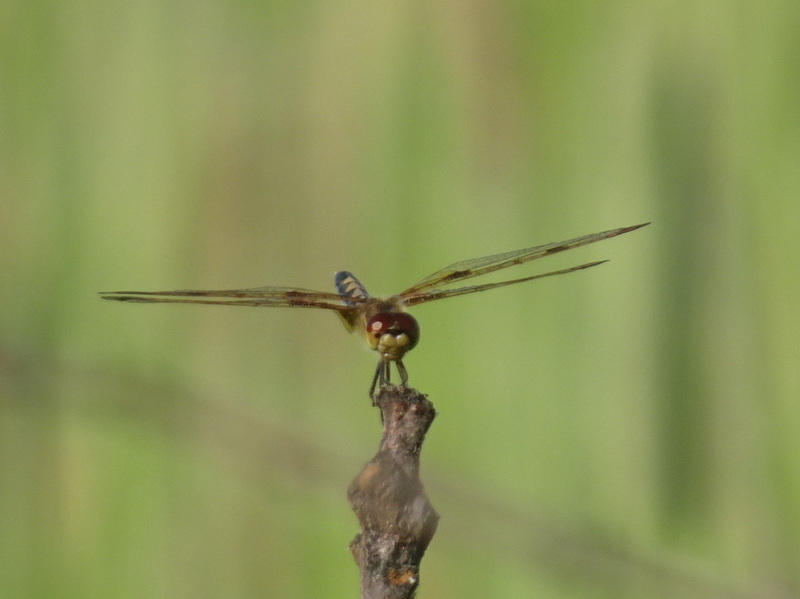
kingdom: Animalia
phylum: Arthropoda
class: Insecta
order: Odonata
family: Libellulidae
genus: Celithemis
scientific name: Celithemis elisa
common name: Calico pennant
